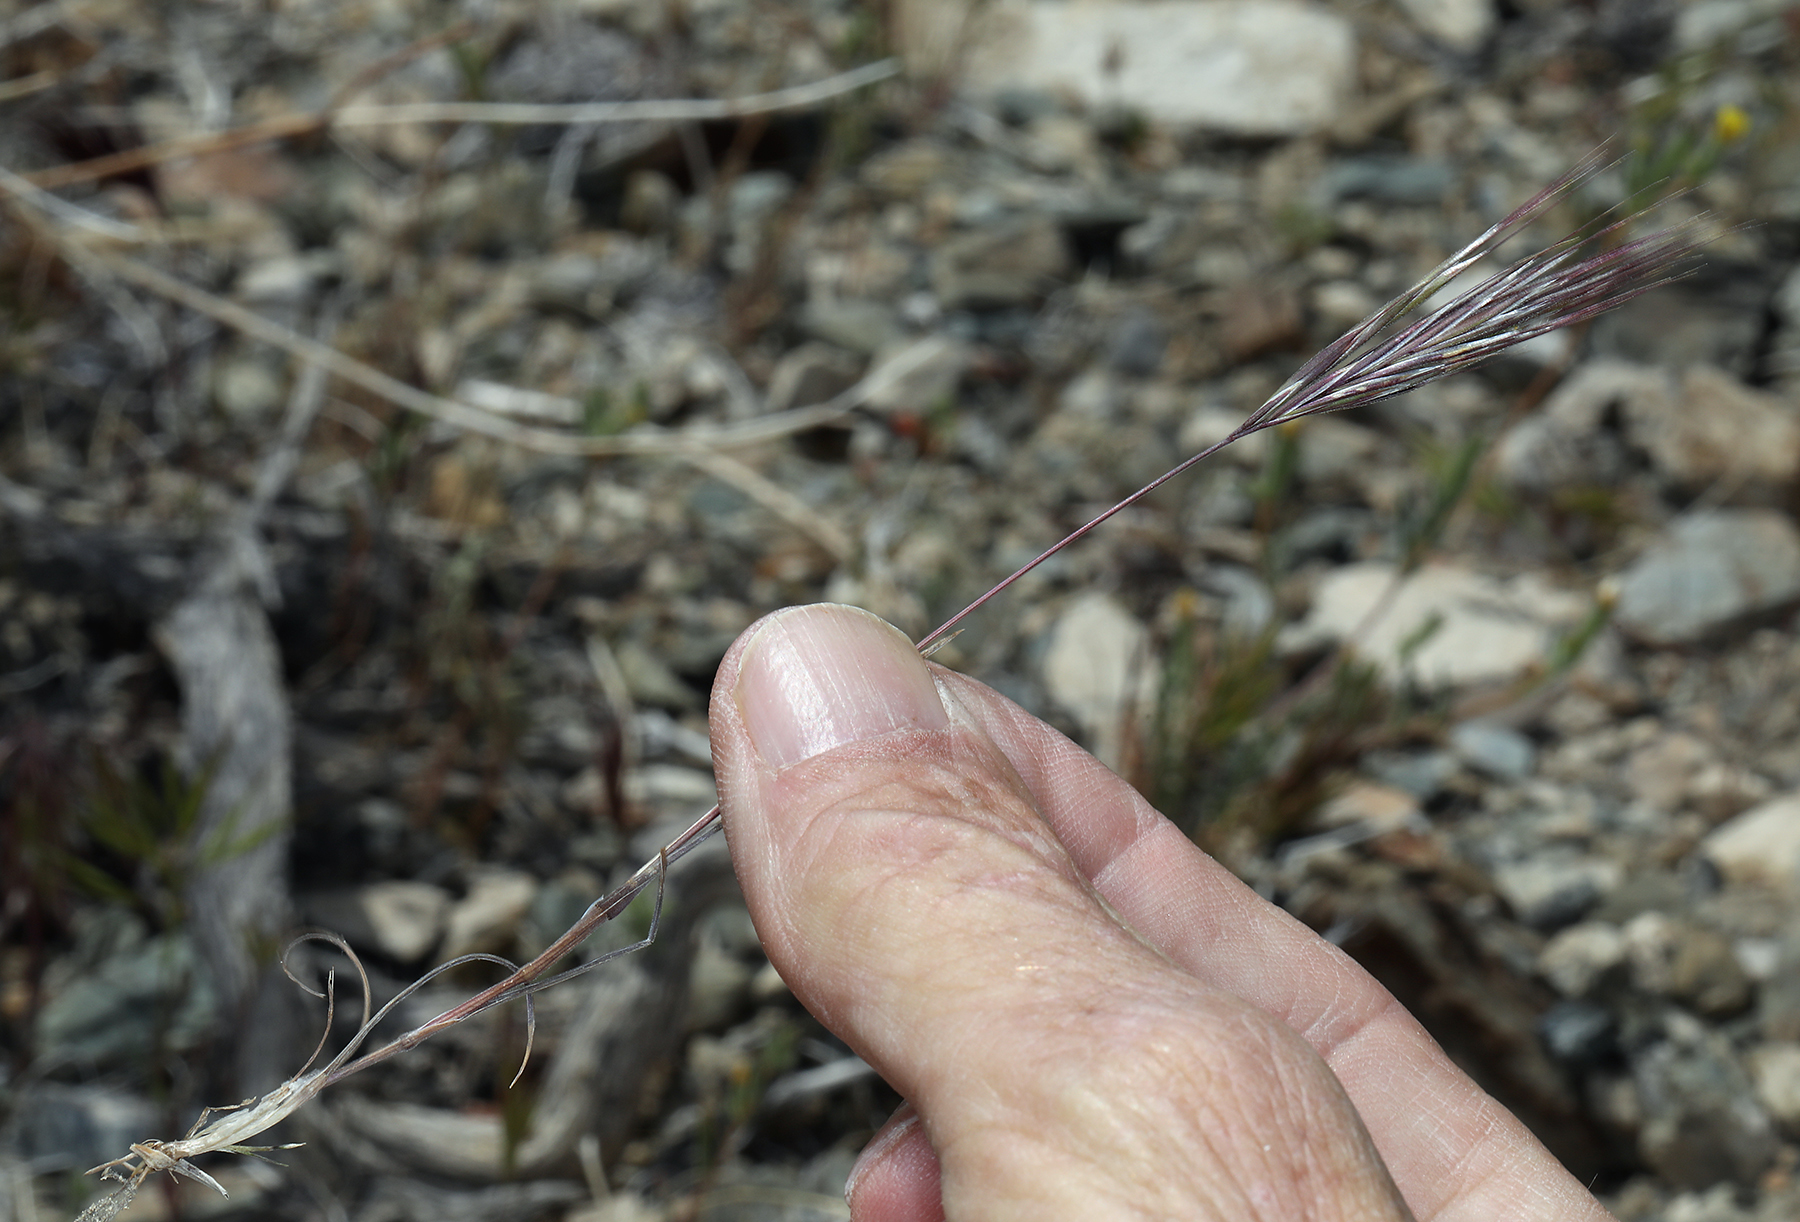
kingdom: Plantae
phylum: Tracheophyta
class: Liliopsida
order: Poales
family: Poaceae
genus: Bromus
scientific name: Bromus rubens
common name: Red brome
